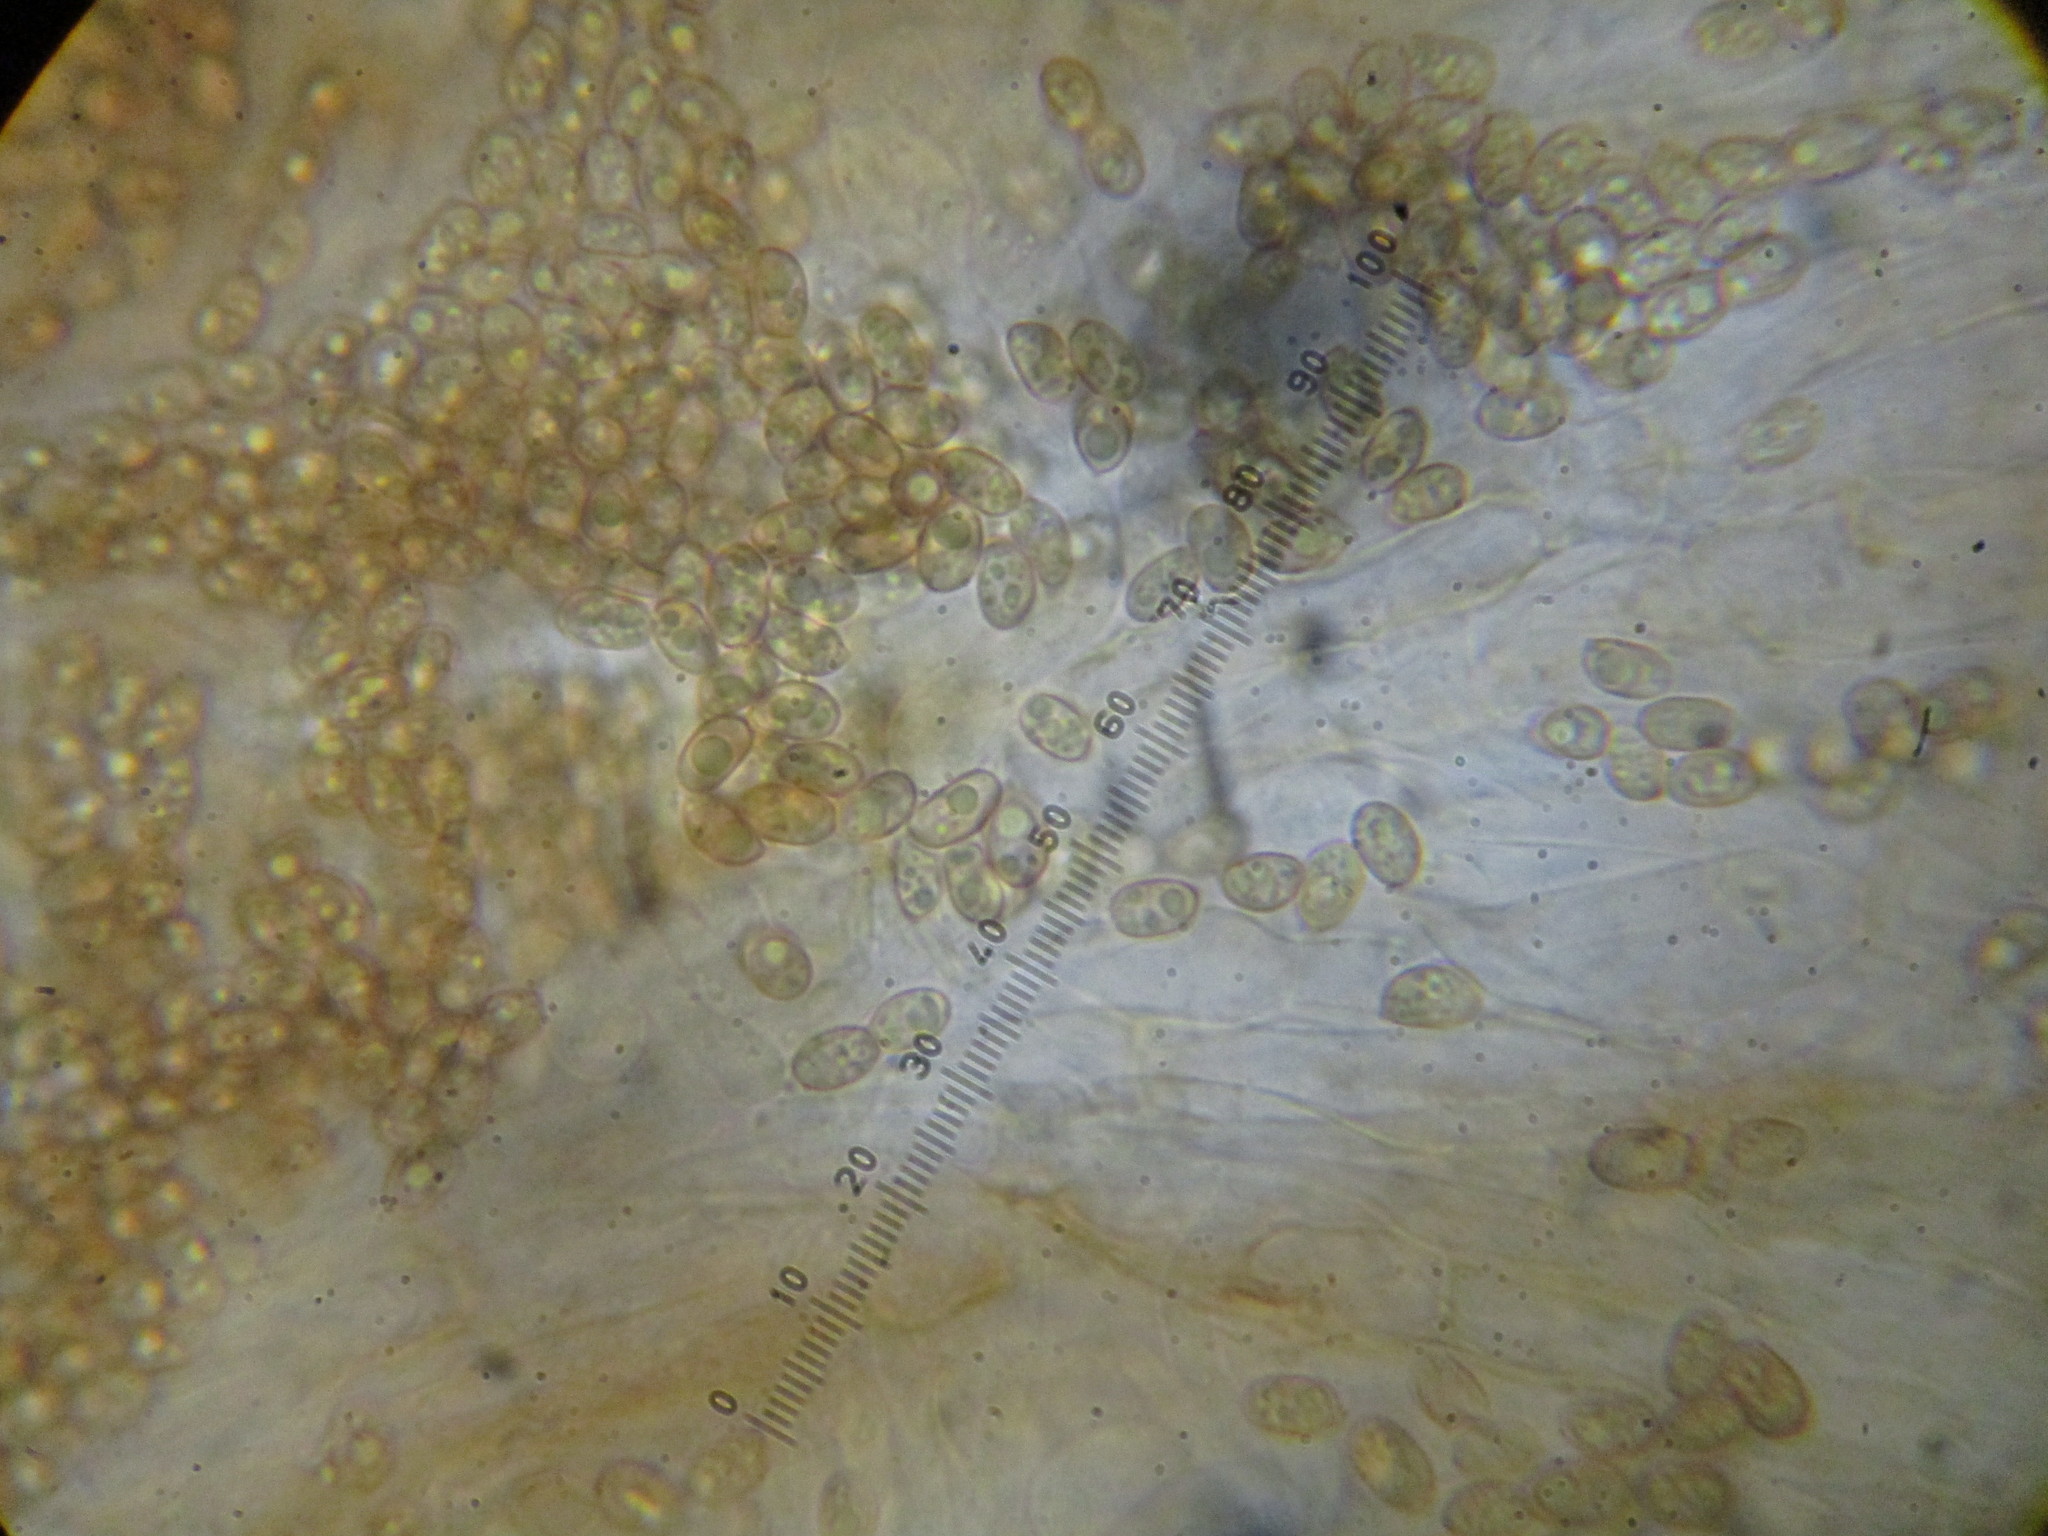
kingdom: Fungi
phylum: Basidiomycota
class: Agaricomycetes
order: Agaricales
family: Tubariaceae
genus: Tubaria
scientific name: Tubaria furfuracea
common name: Scurfy twiglet
